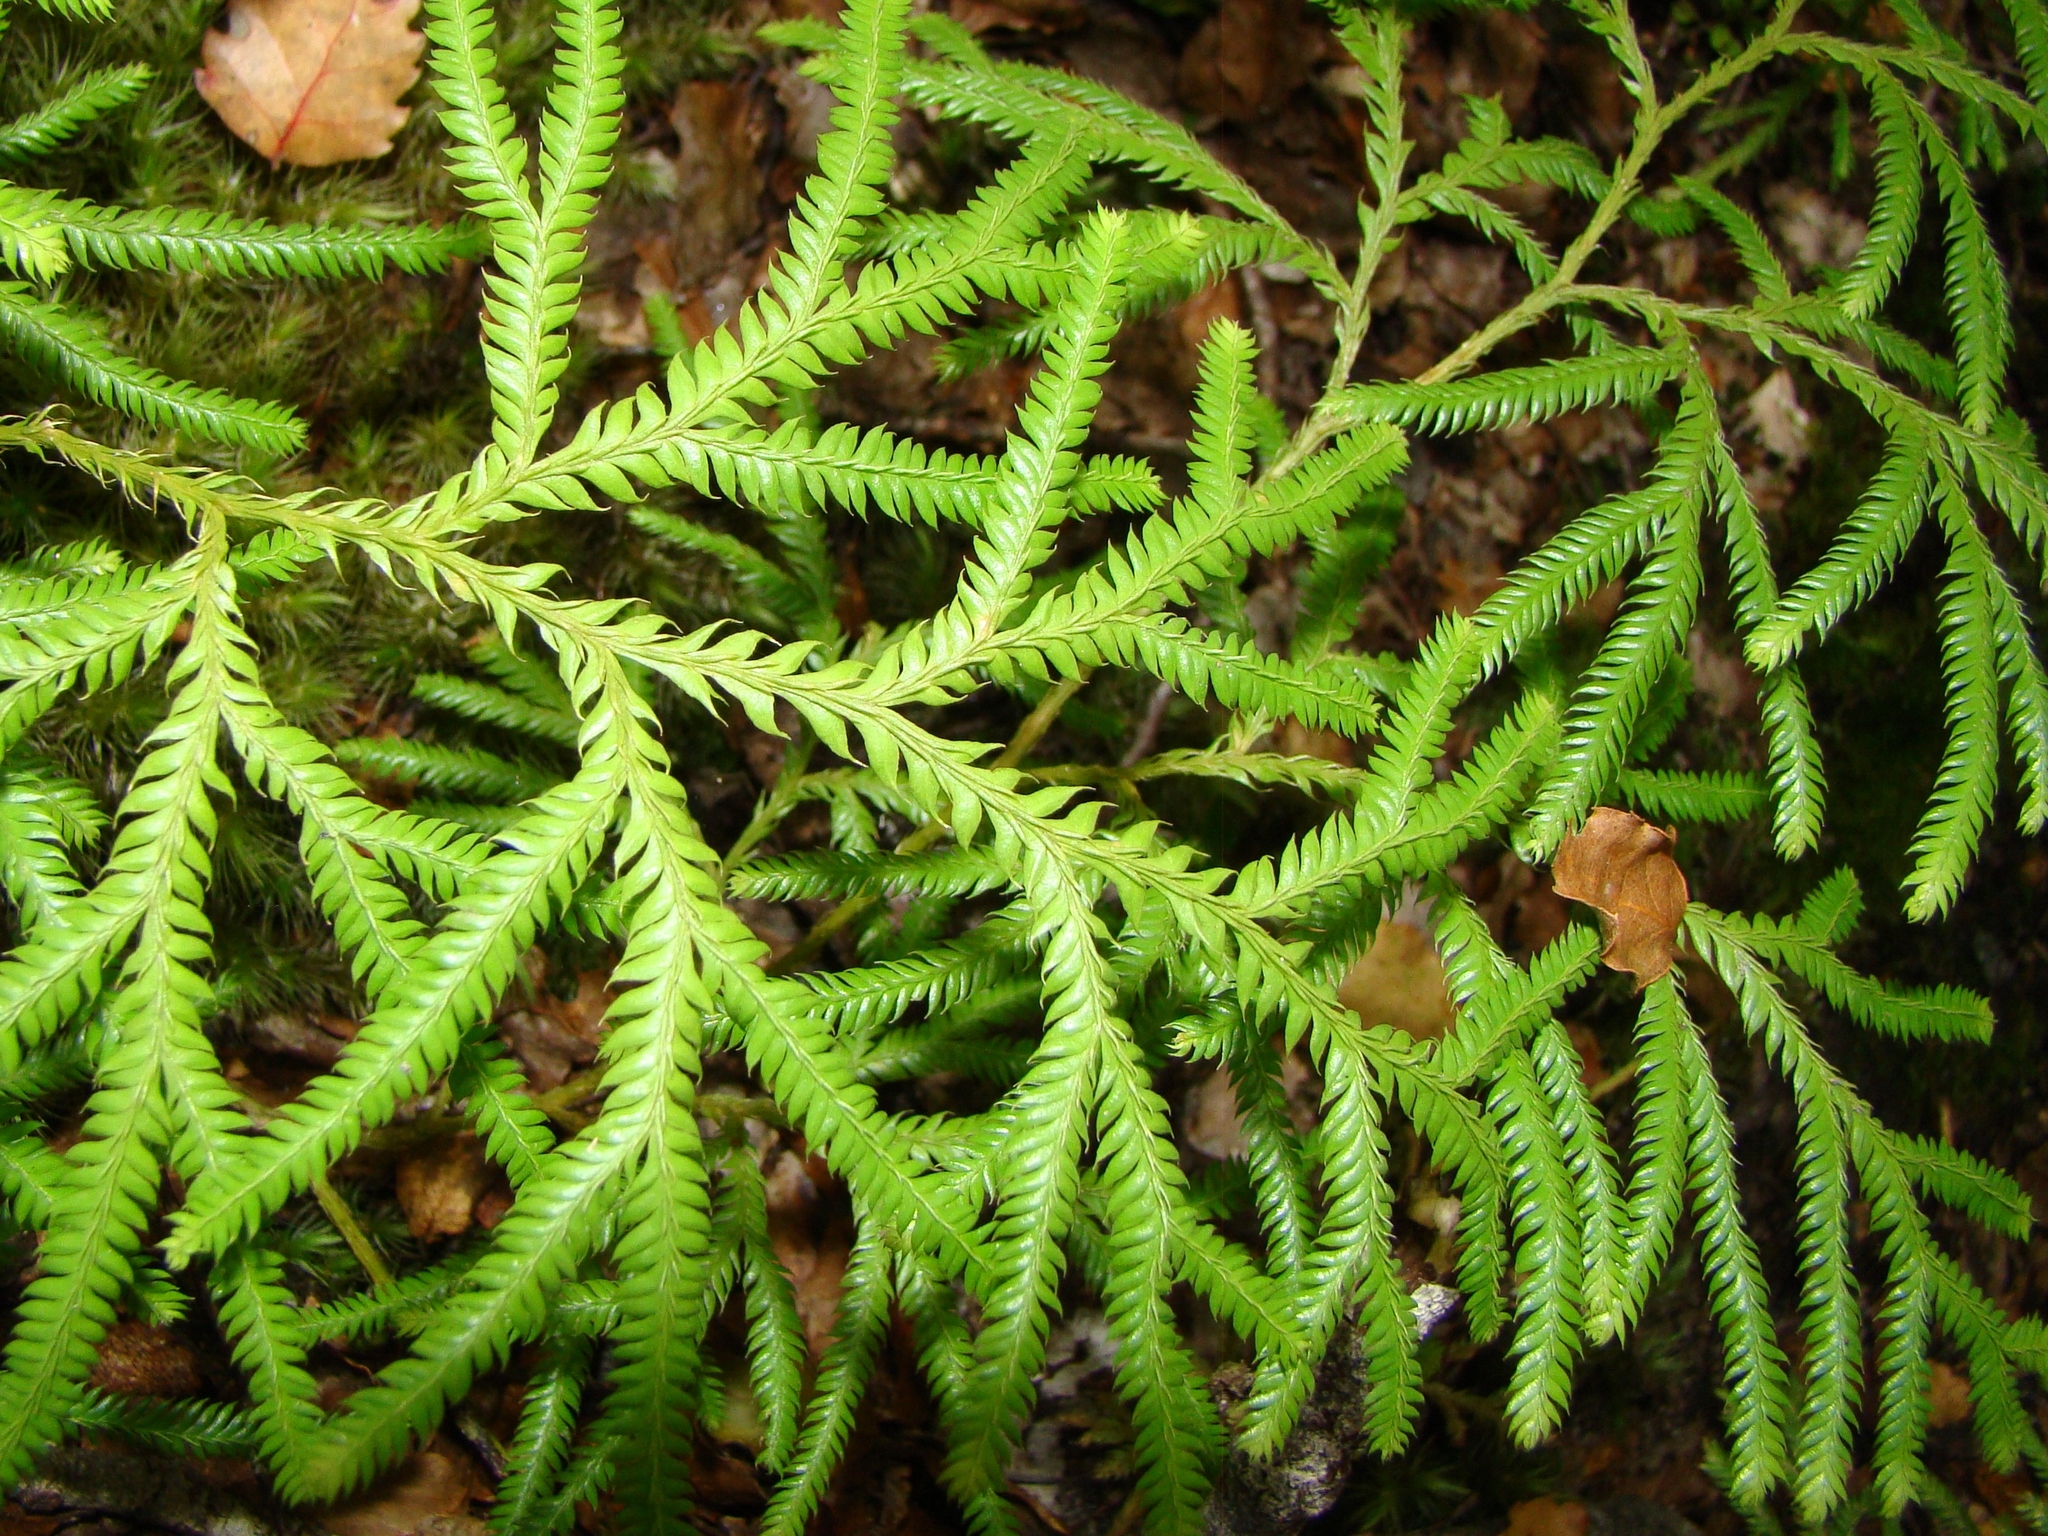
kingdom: Plantae
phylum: Tracheophyta
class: Lycopodiopsida
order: Lycopodiales
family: Lycopodiaceae
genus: Lycopodium
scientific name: Lycopodium volubile
